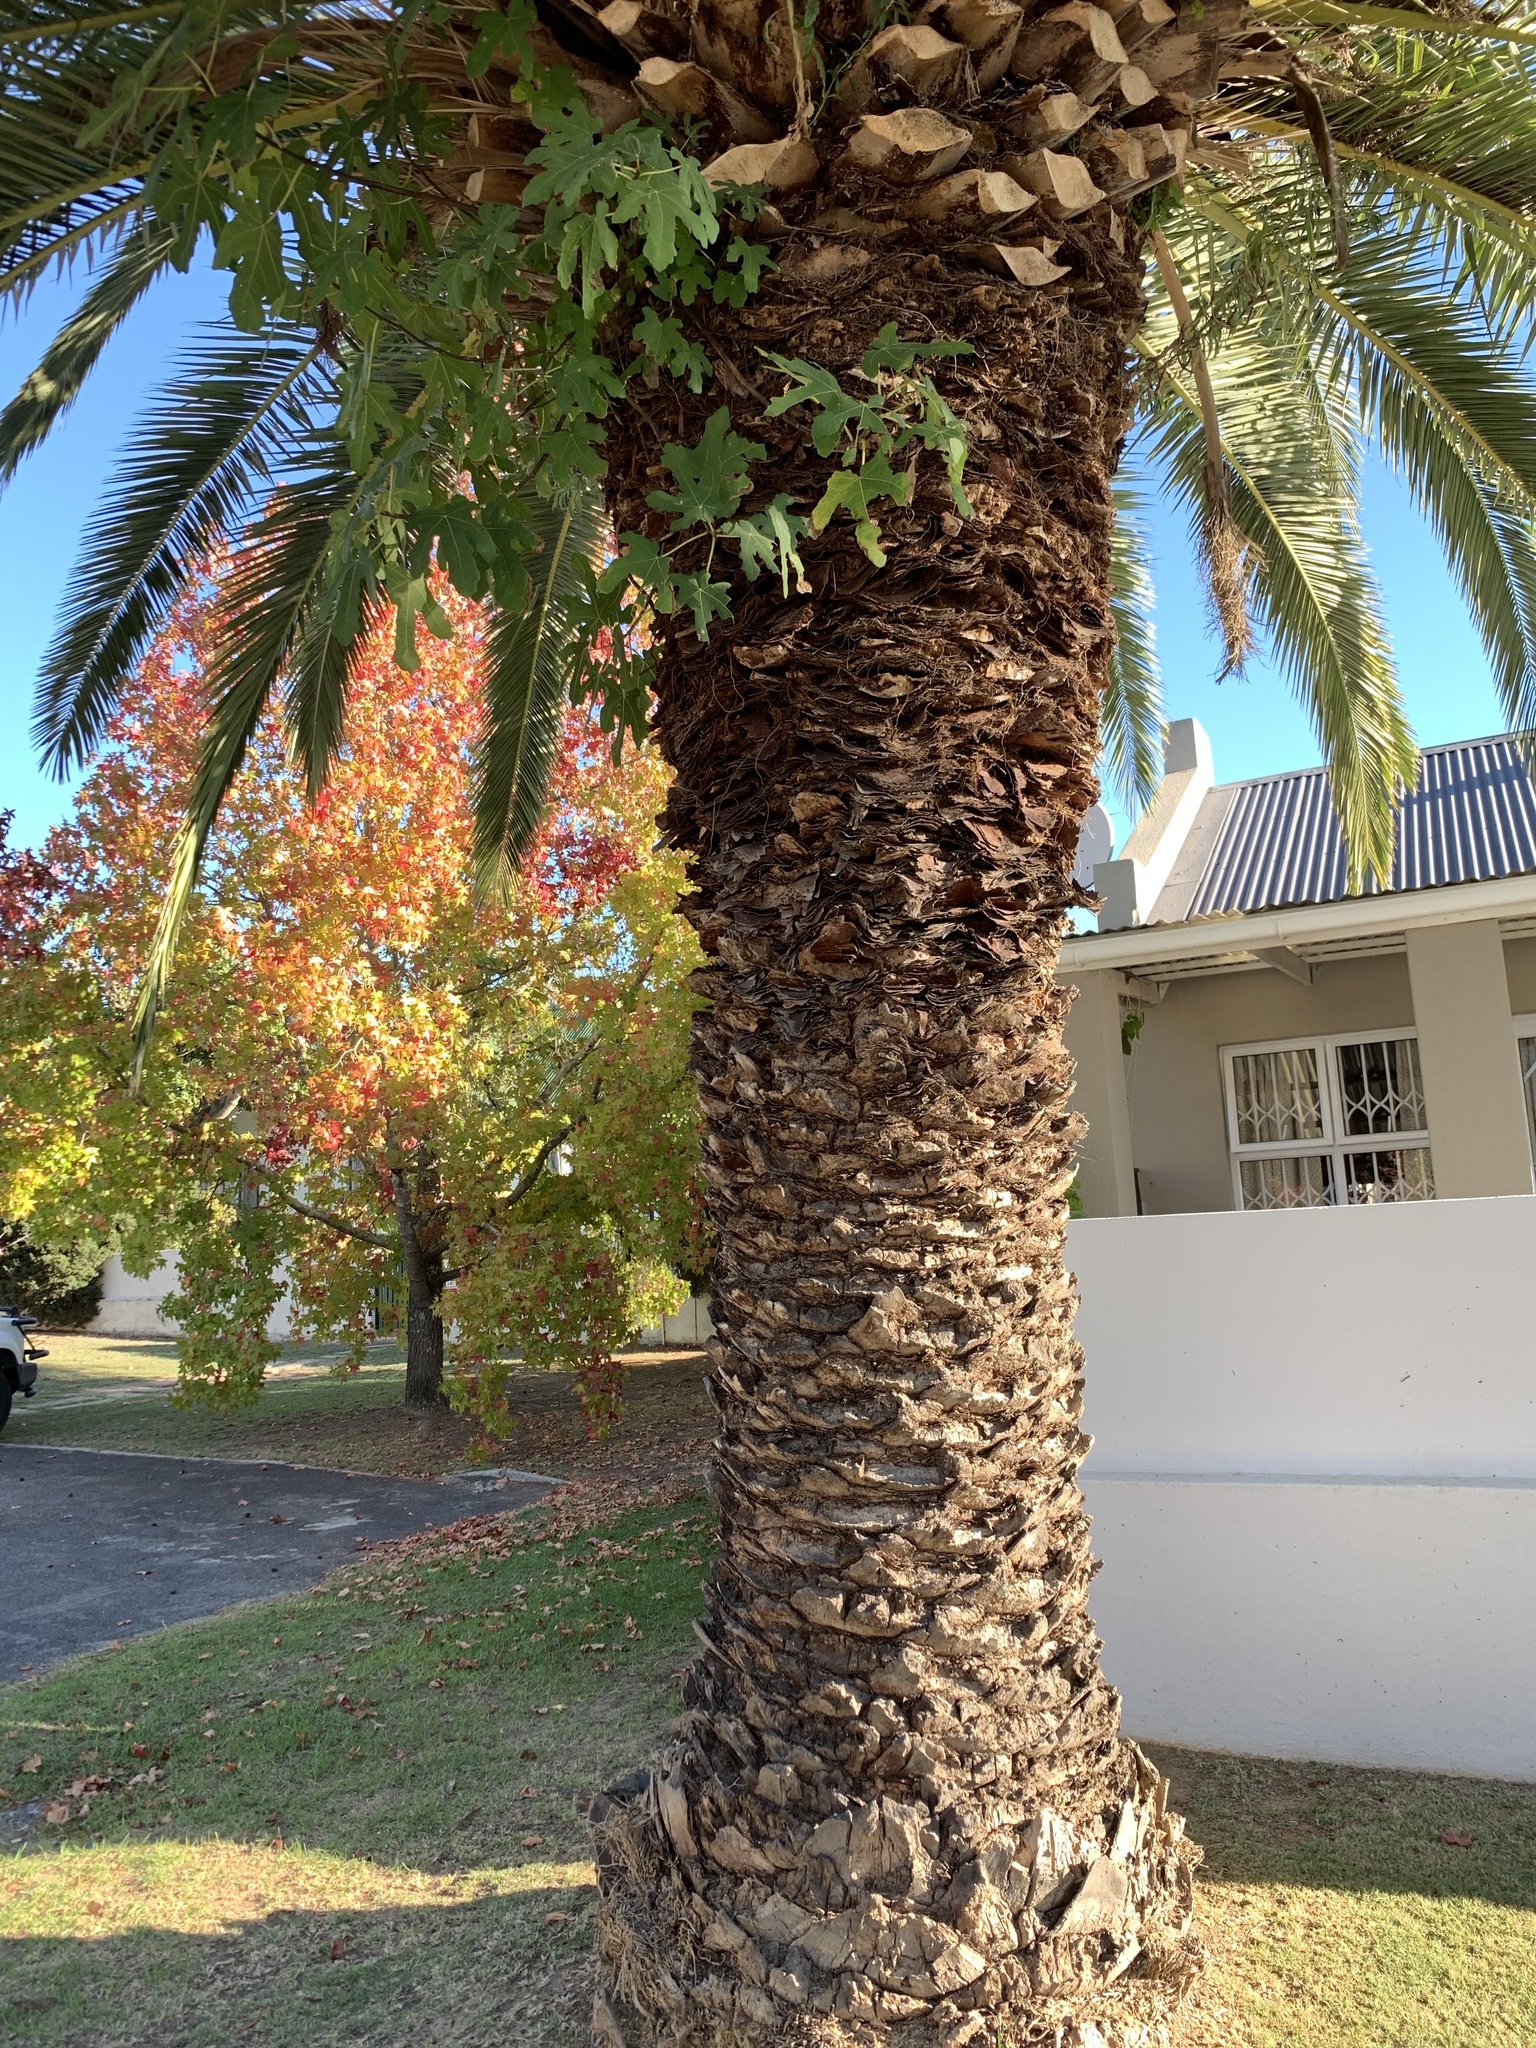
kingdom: Plantae
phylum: Tracheophyta
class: Magnoliopsida
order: Rosales
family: Moraceae
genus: Ficus
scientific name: Ficus carica
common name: Fig
